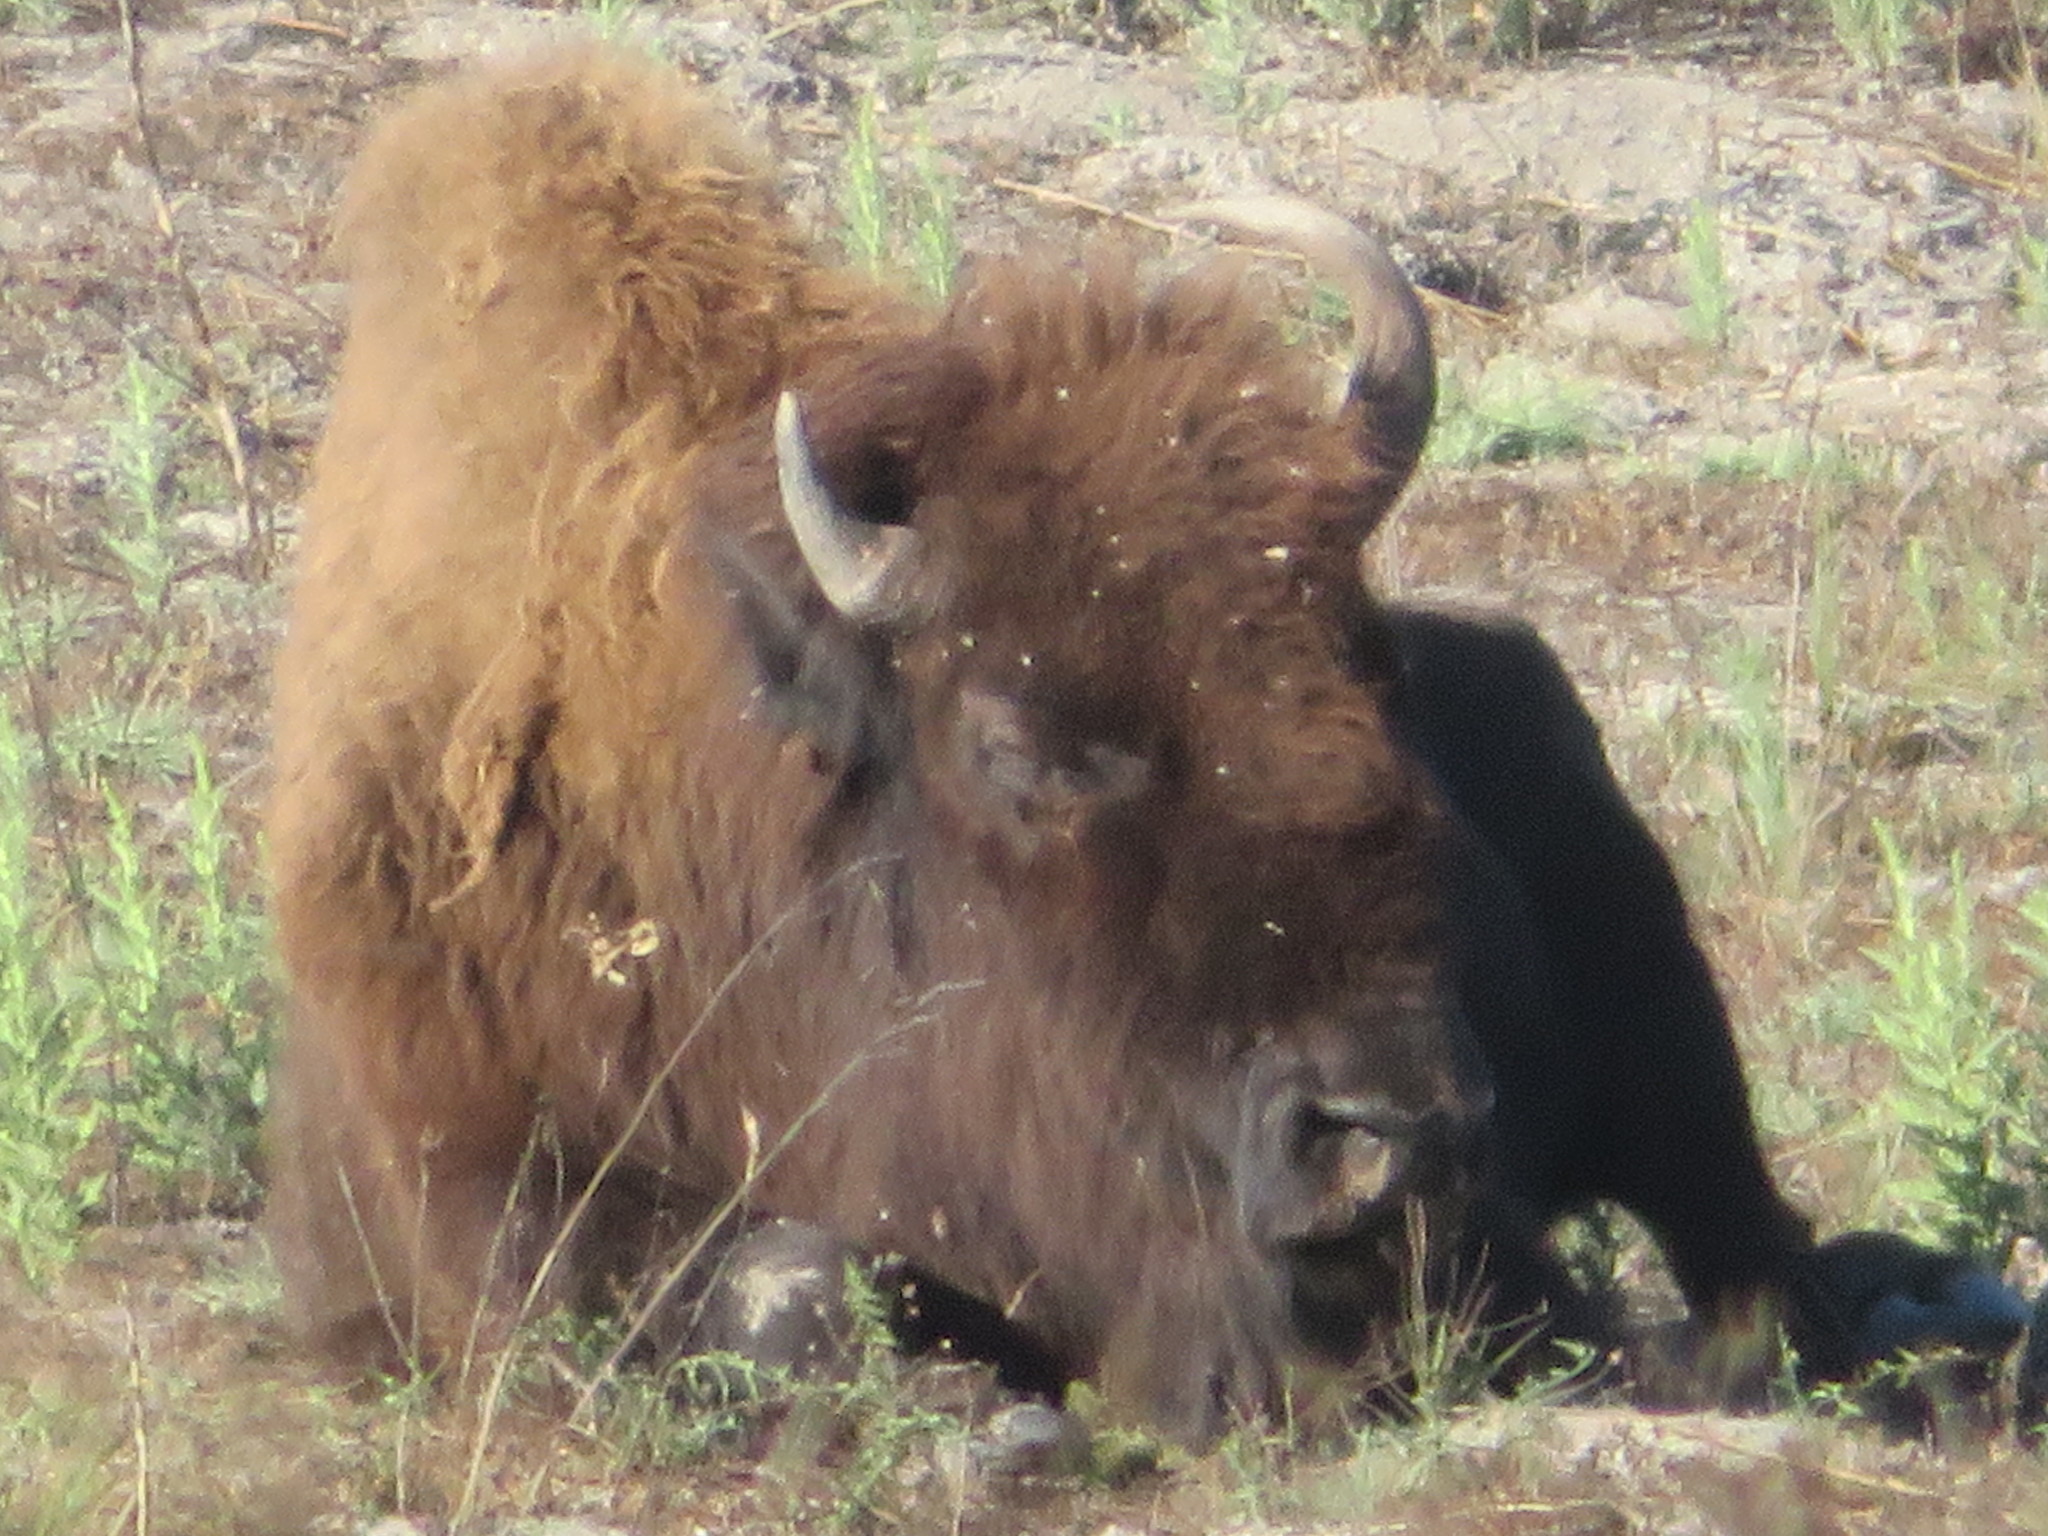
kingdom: Animalia
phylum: Chordata
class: Mammalia
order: Artiodactyla
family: Bovidae
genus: Bison
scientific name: Bison bison
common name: American bison
